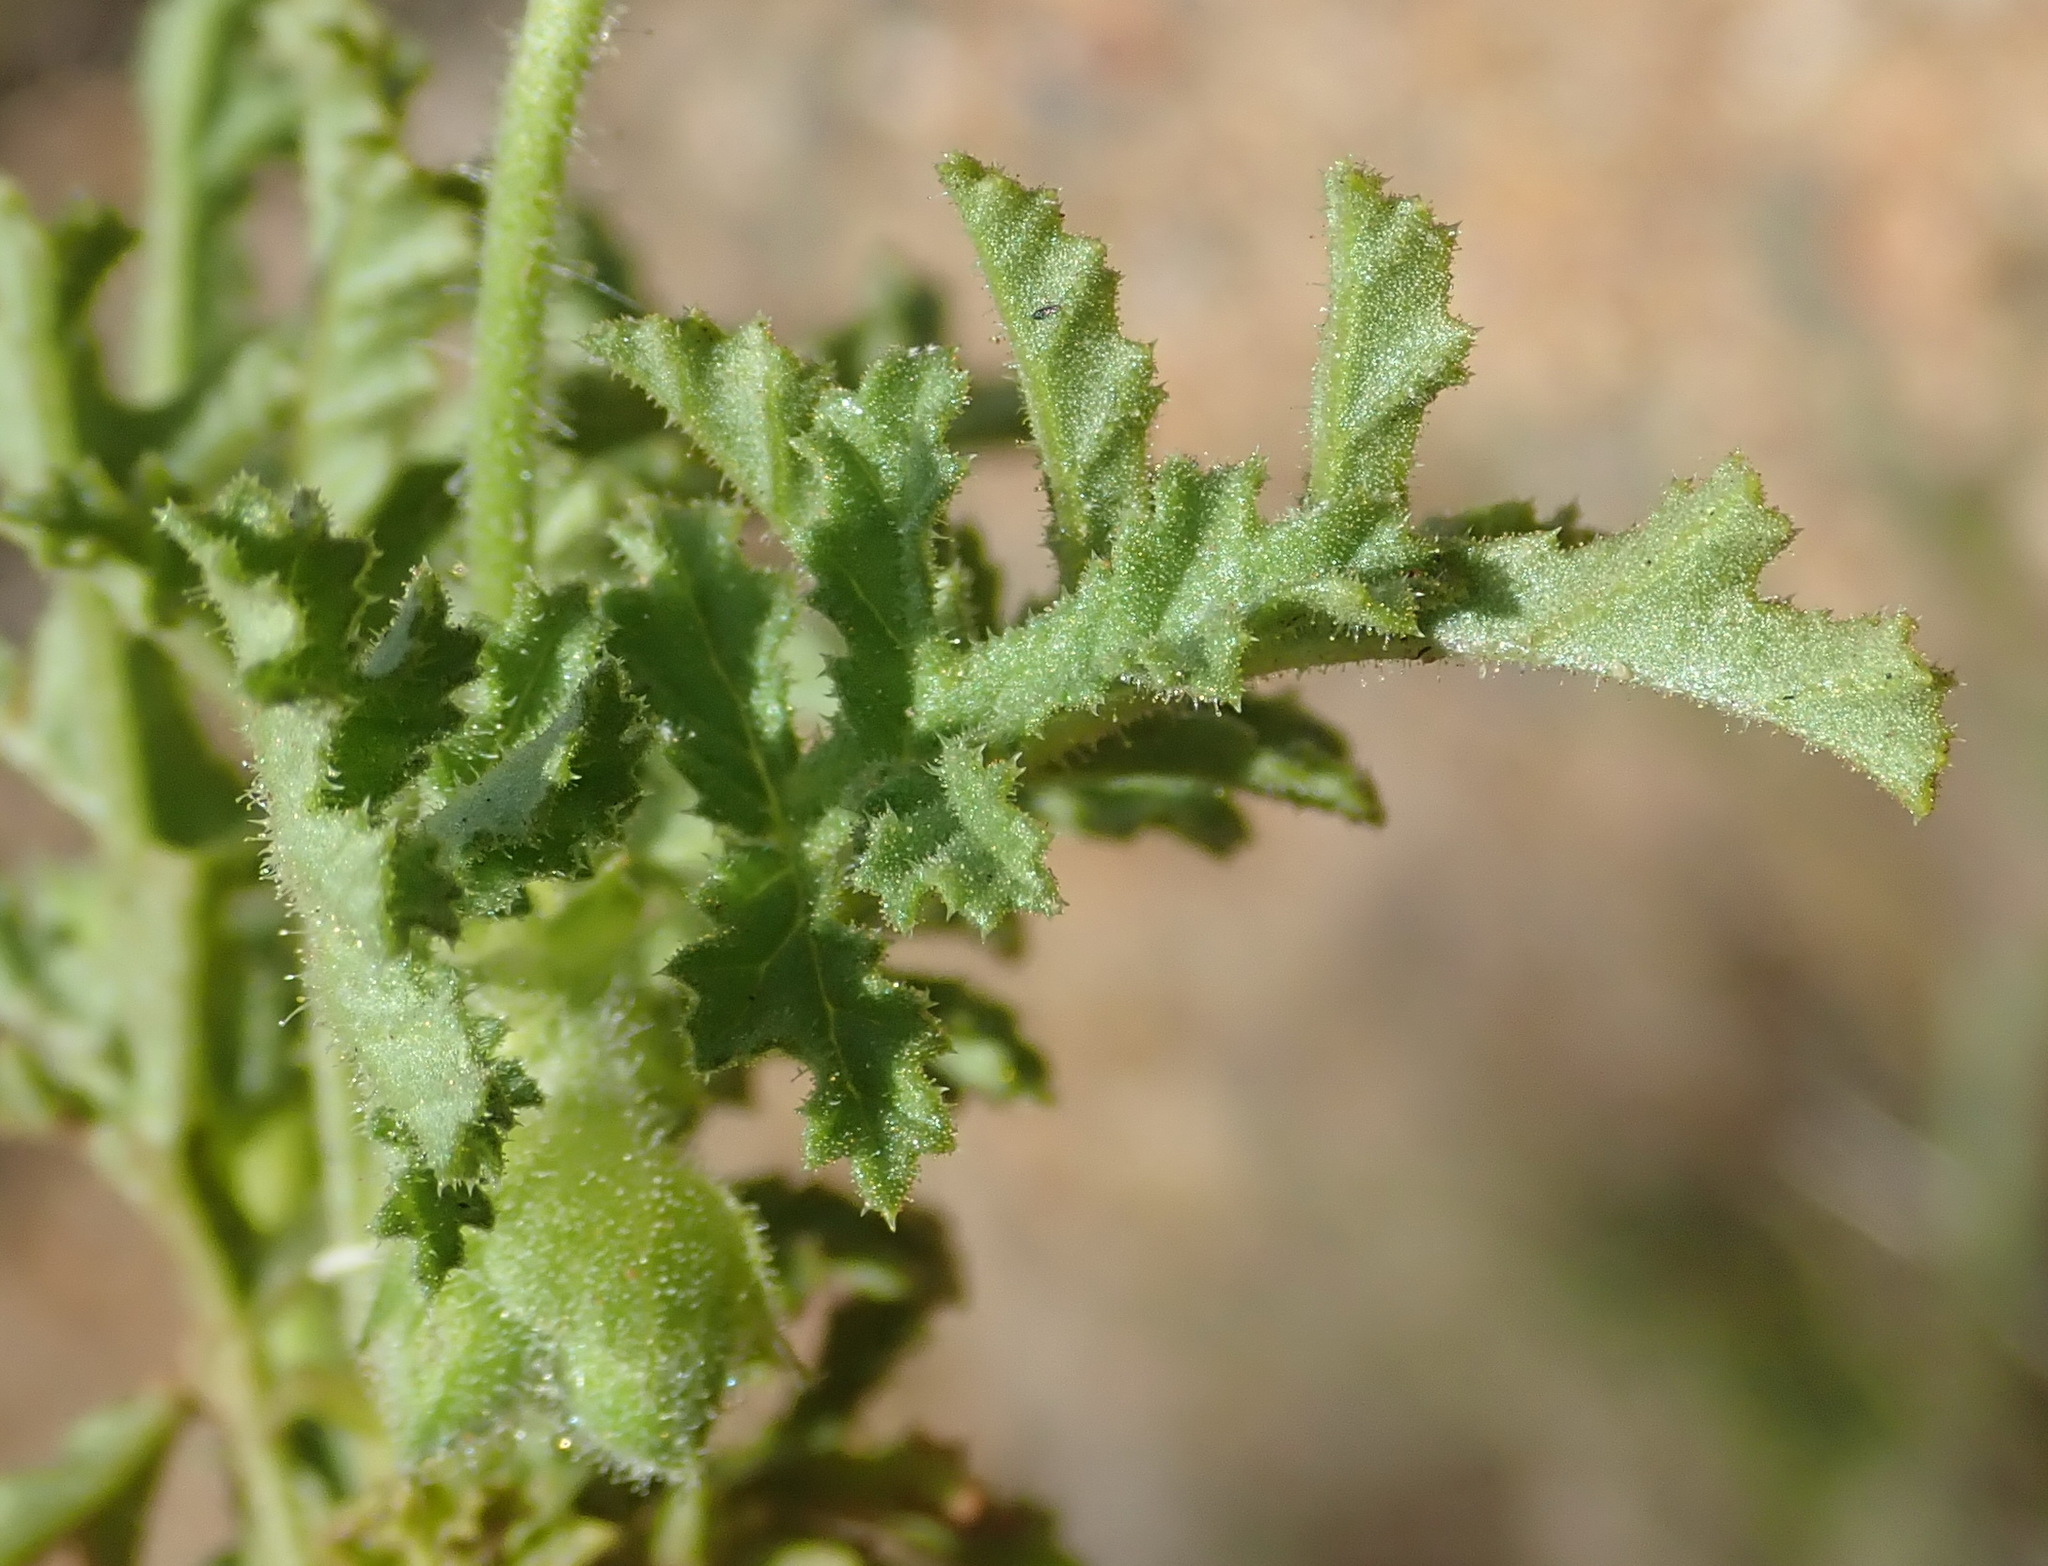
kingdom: Plantae
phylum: Tracheophyta
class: Magnoliopsida
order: Geraniales
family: Geraniaceae
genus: Pelargonium
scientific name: Pelargonium glutinosum
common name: Pheasant-foot geranium
